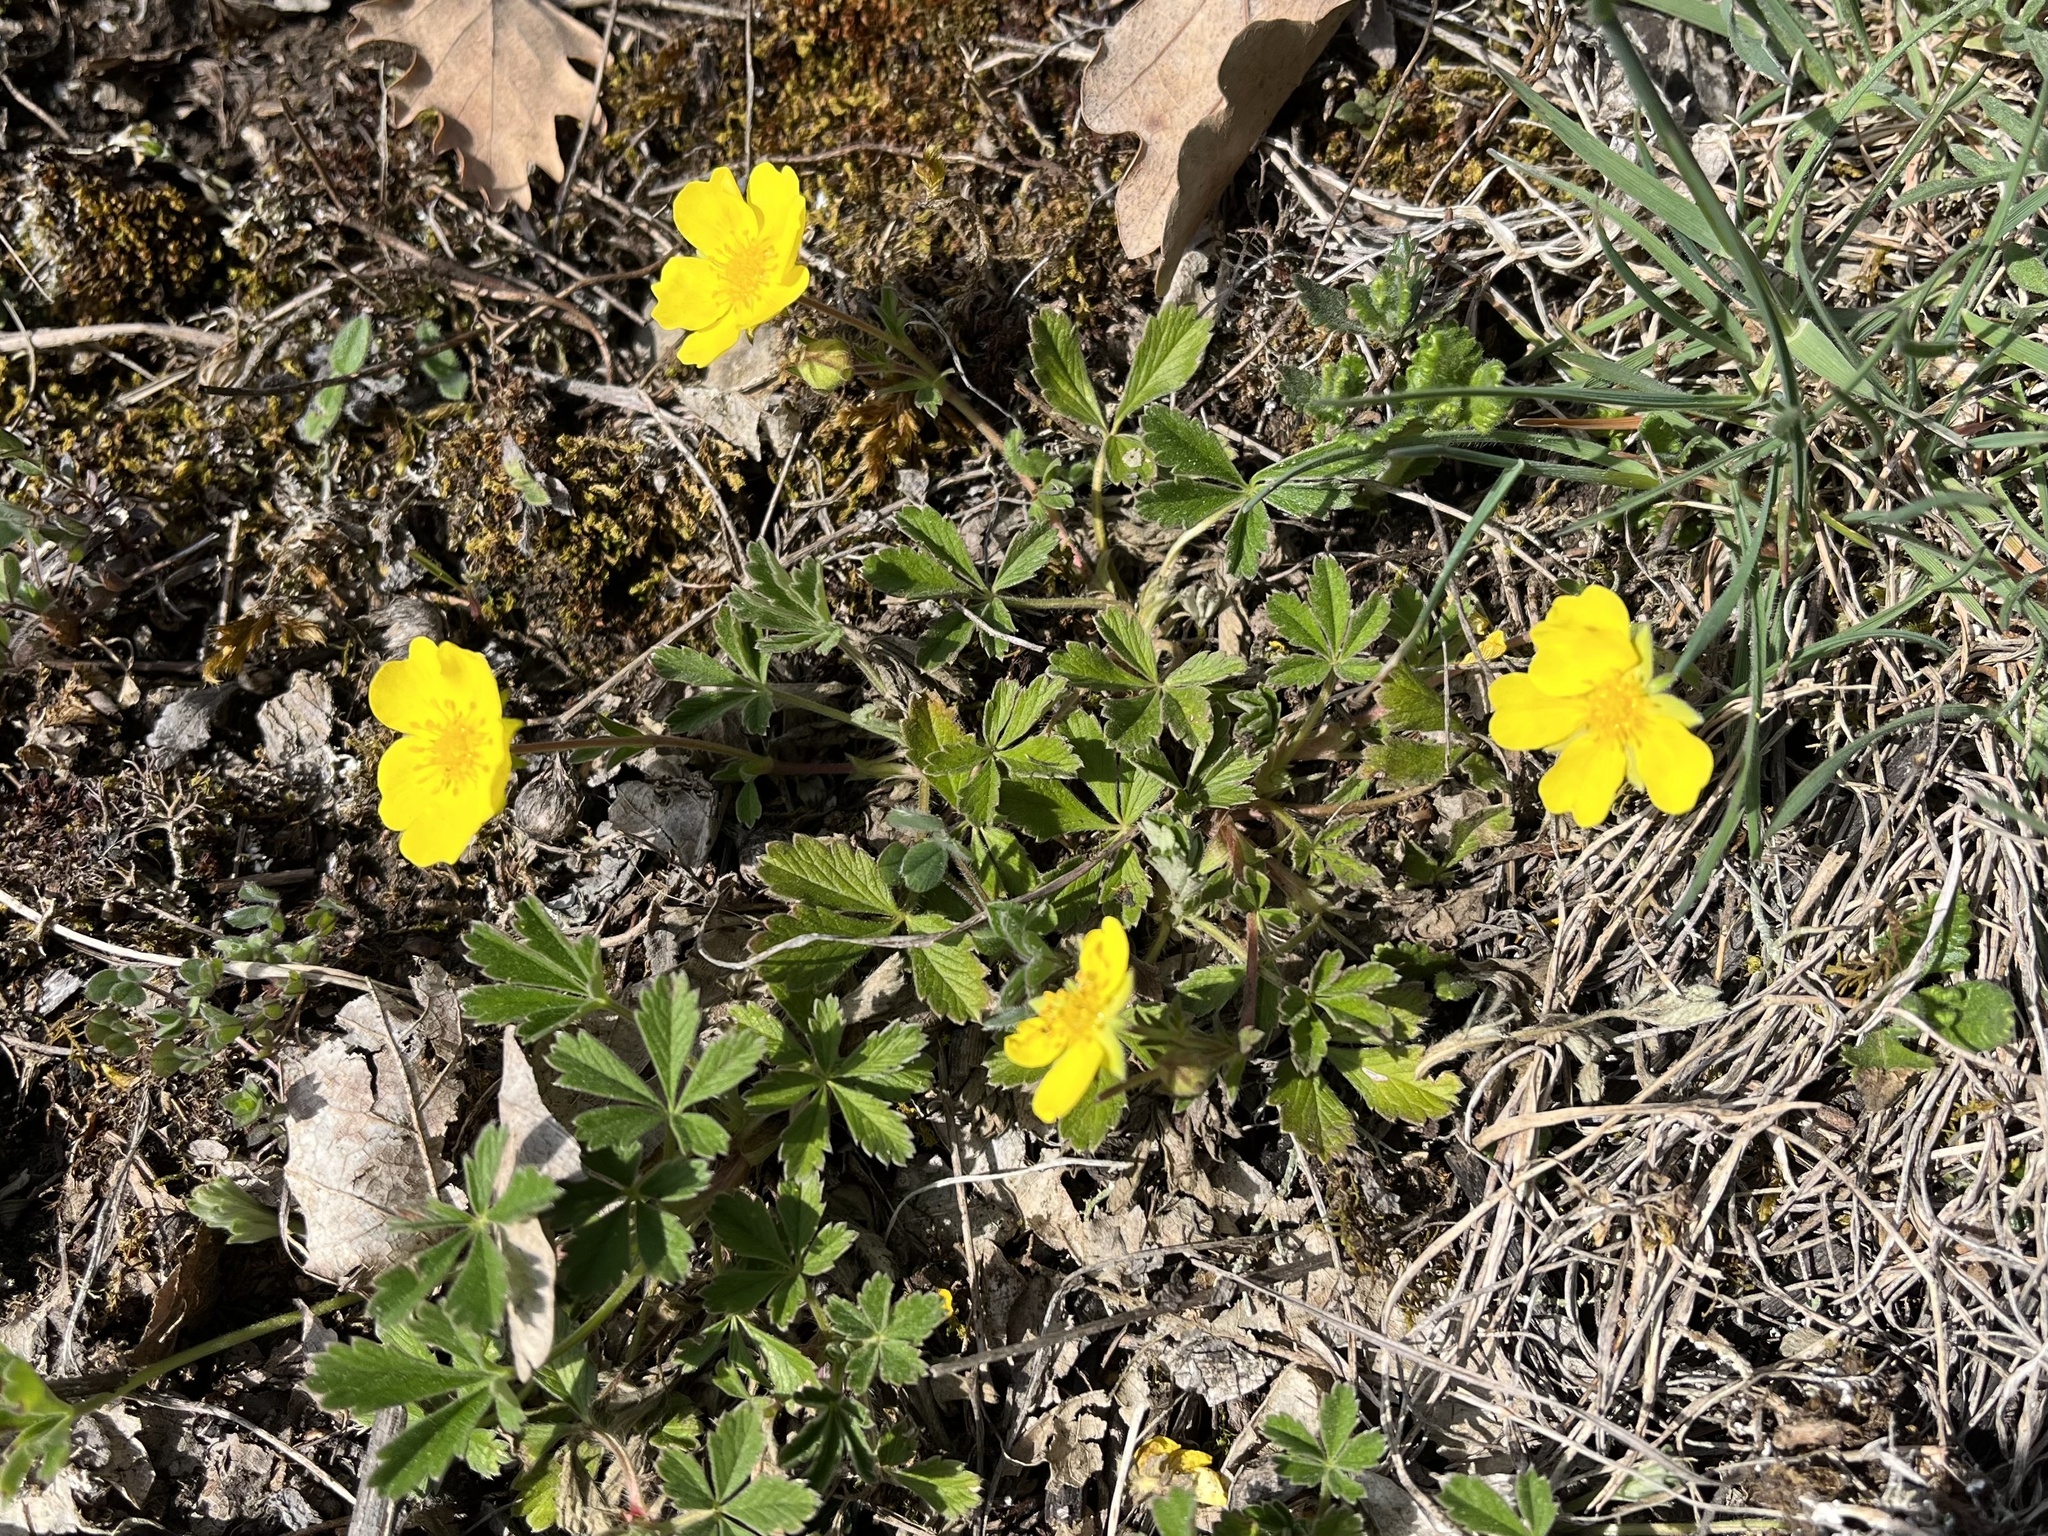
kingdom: Plantae
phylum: Tracheophyta
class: Magnoliopsida
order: Rosales
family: Rosaceae
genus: Potentilla
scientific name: Potentilla incana
